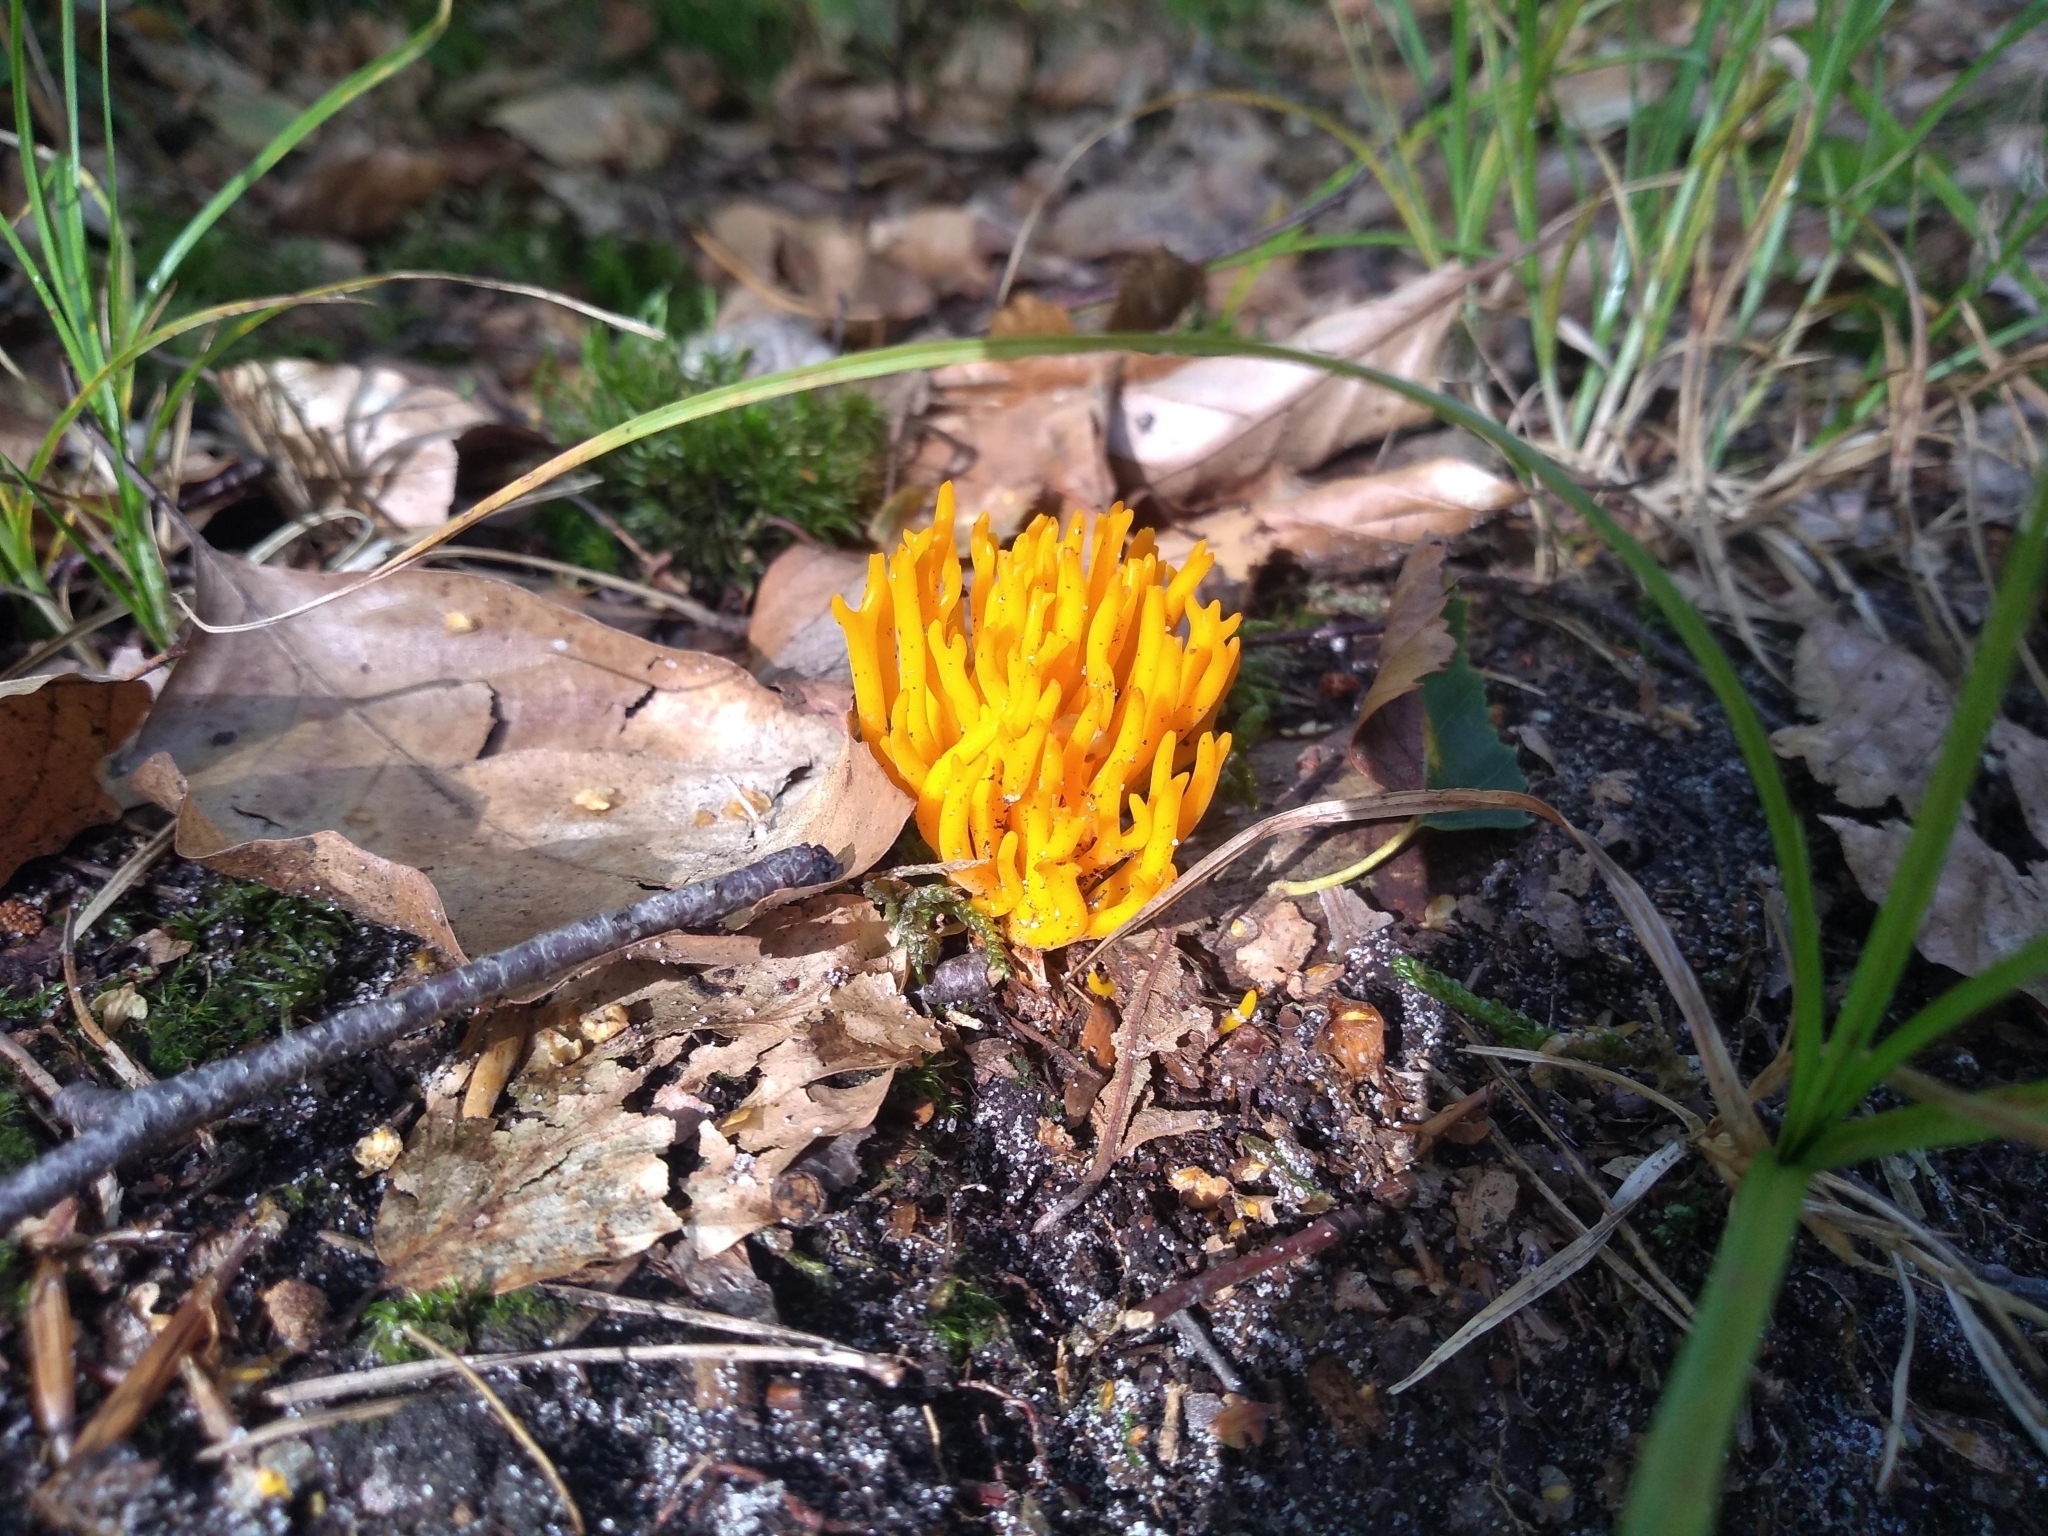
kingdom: Fungi
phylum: Basidiomycota
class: Dacrymycetes
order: Dacrymycetales
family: Dacrymycetaceae
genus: Calocera
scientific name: Calocera viscosa
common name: Yellow stagshorn
